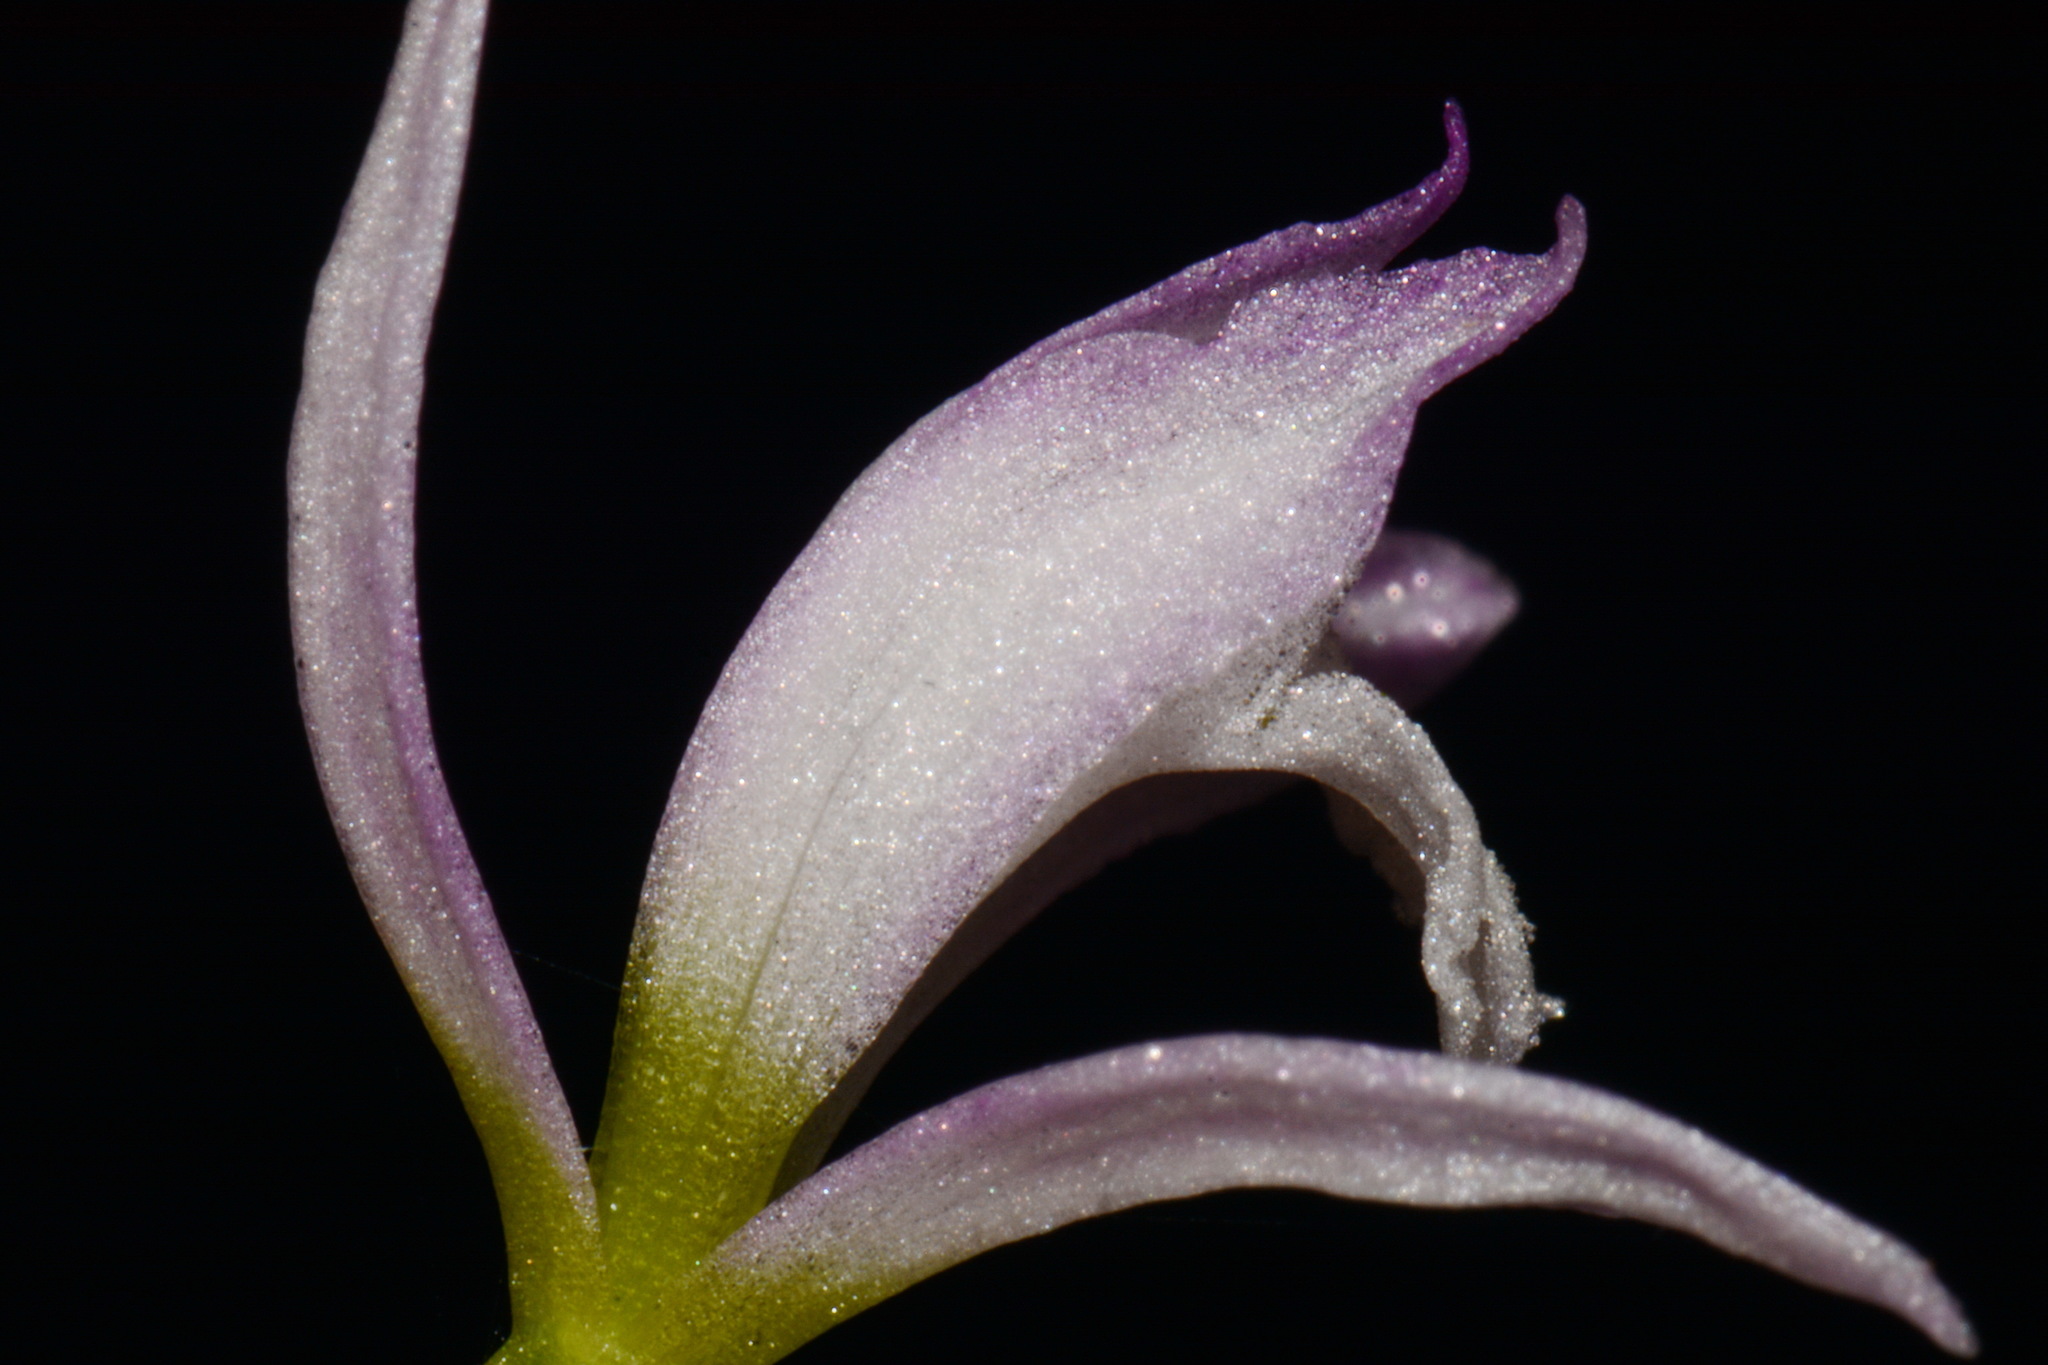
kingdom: Plantae
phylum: Tracheophyta
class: Liliopsida
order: Asparagales
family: Orchidaceae
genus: Triphora
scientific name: Triphora trianthophoros
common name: Three birds orchid
